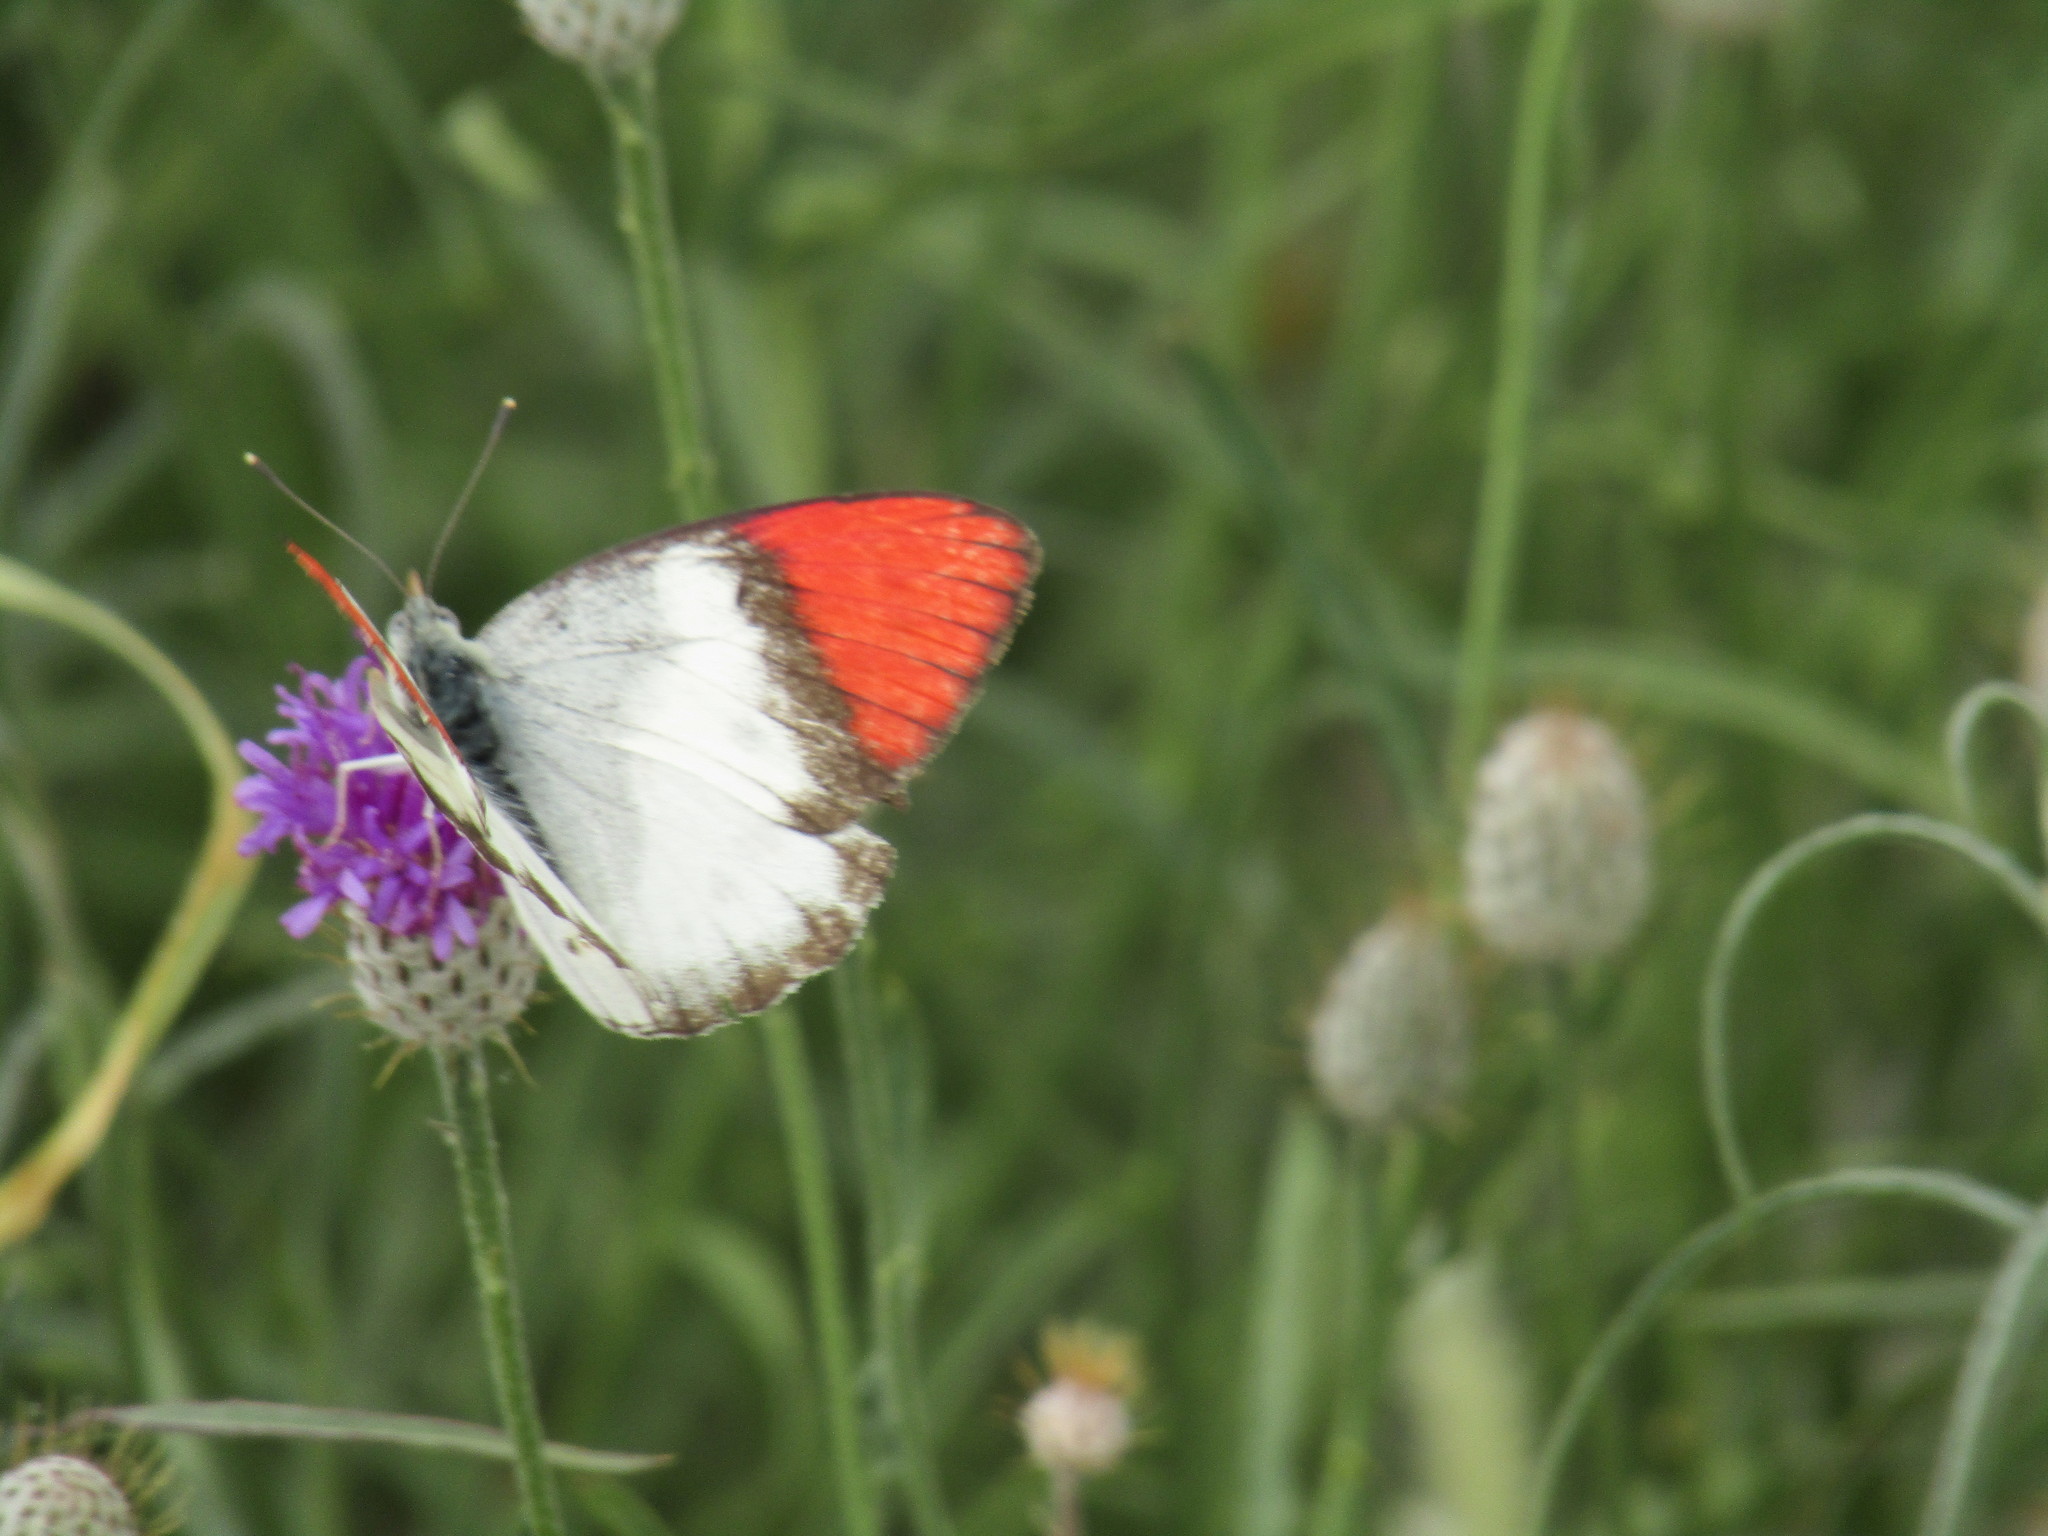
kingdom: Animalia
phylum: Arthropoda
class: Insecta
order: Lepidoptera
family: Pieridae
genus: Colotis
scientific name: Colotis annae
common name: Scarlet tip
